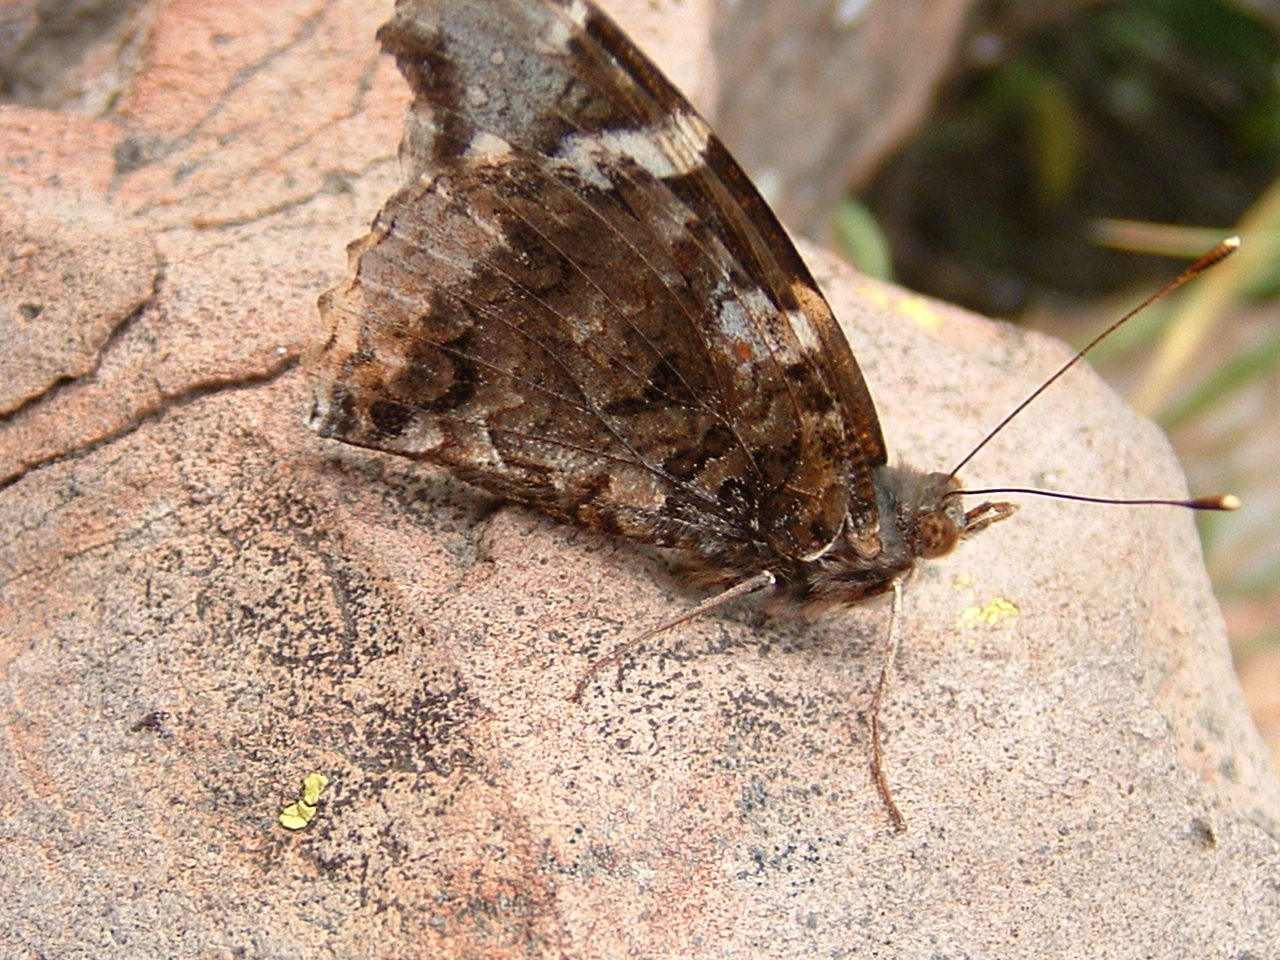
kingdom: Animalia
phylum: Arthropoda
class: Insecta
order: Lepidoptera
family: Nymphalidae
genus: Vanessa
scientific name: Vanessa atalanta
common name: Red admiral
